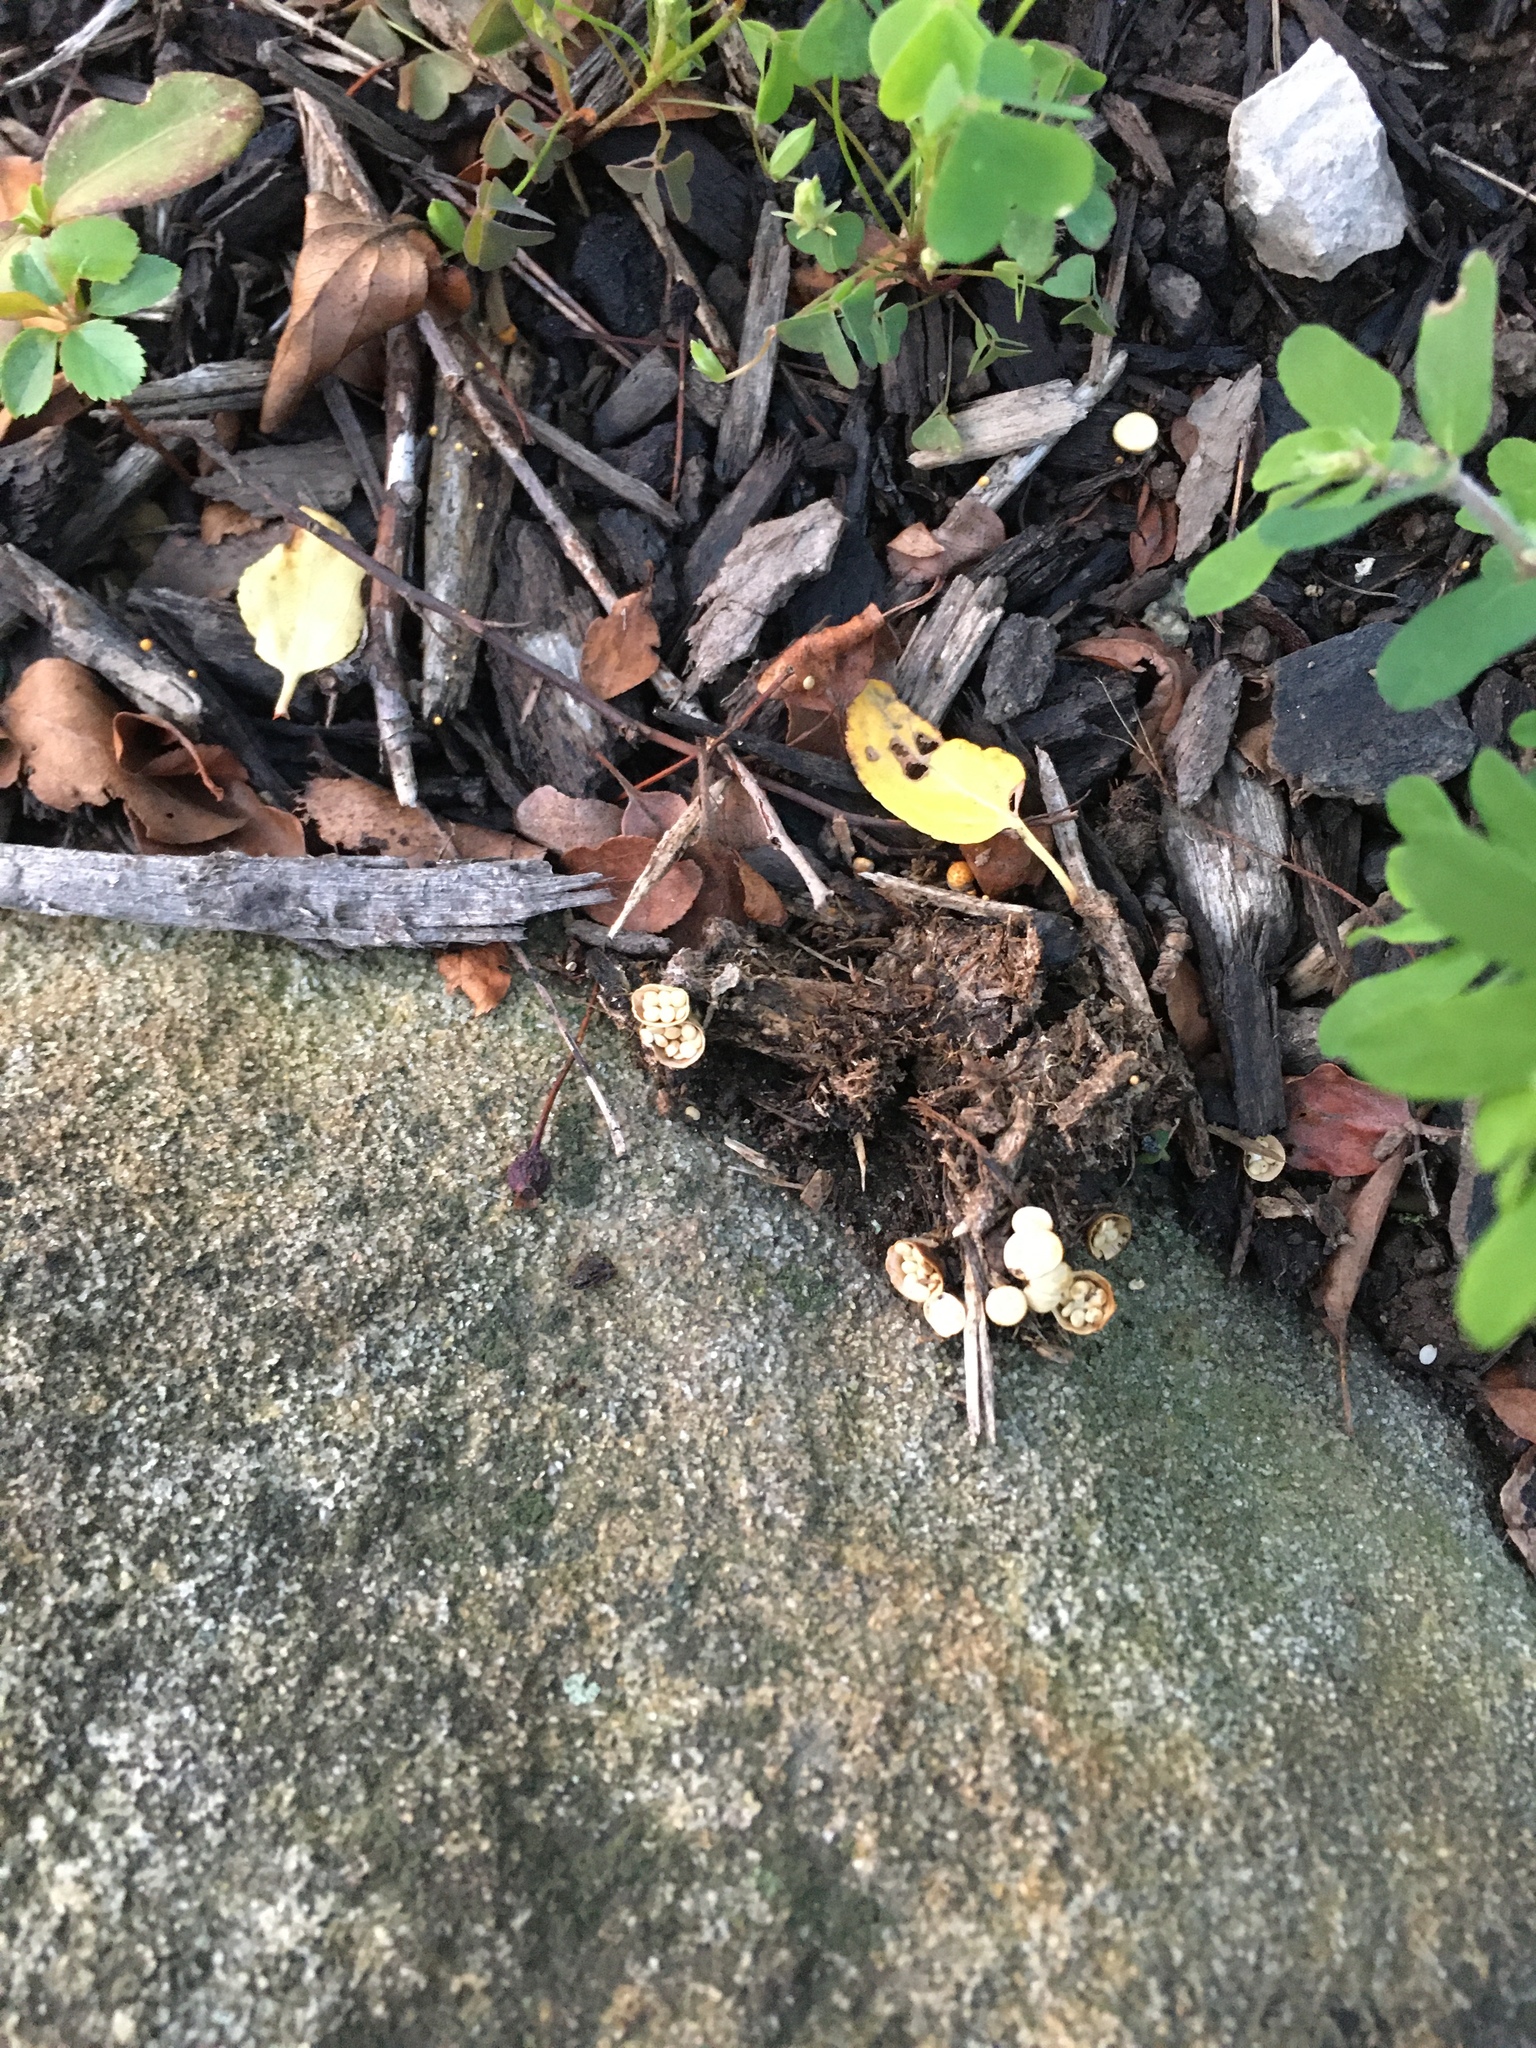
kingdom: Fungi
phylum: Basidiomycota
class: Agaricomycetes
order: Agaricales
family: Nidulariaceae
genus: Crucibulum
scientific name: Crucibulum laeve
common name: Common bird's nest
